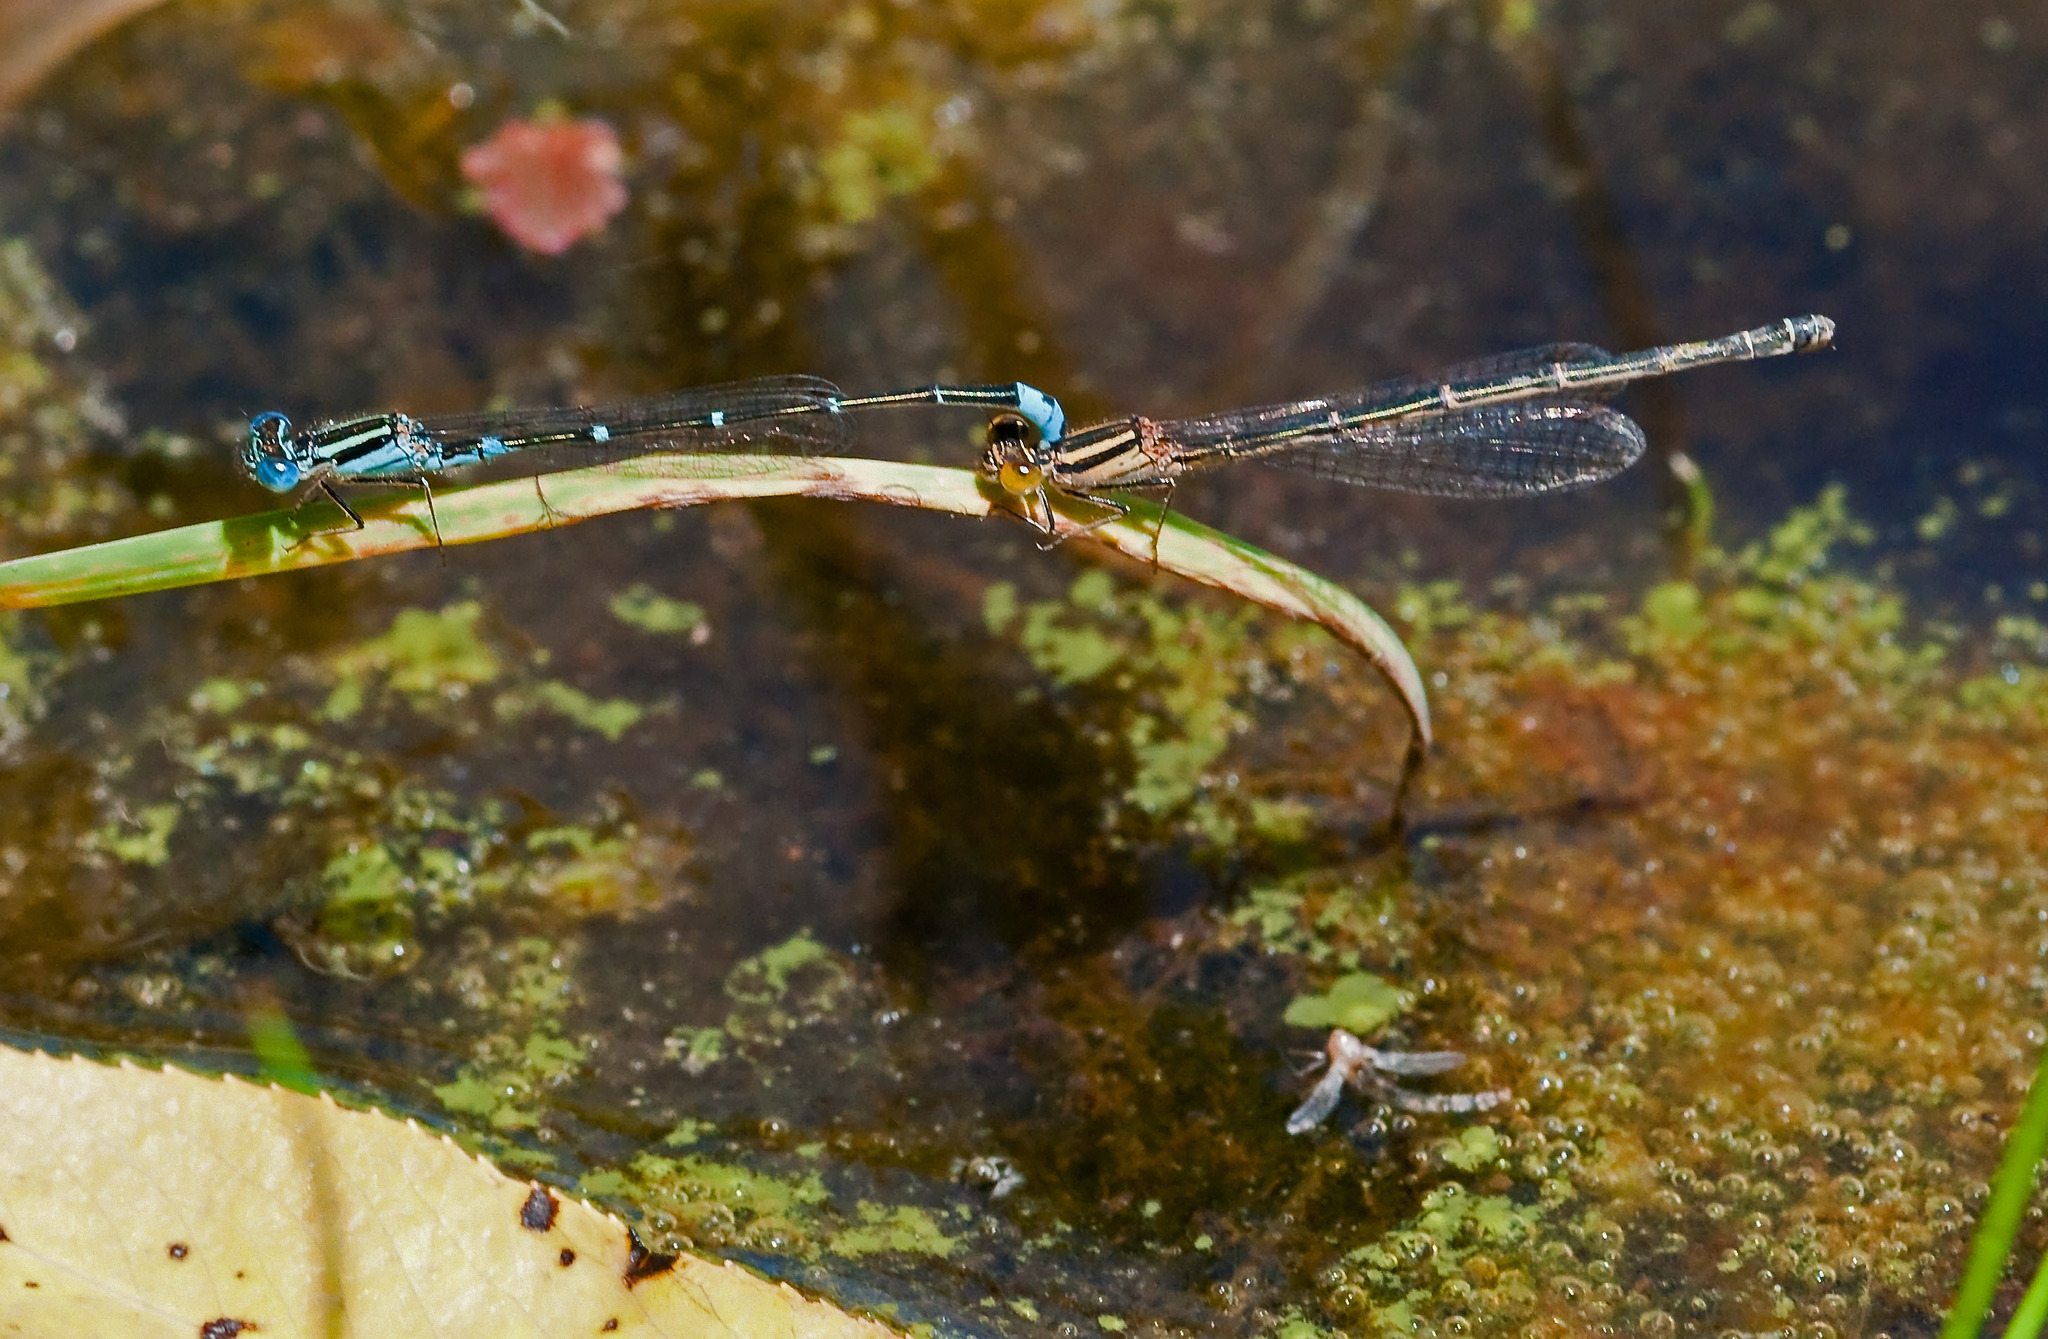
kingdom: Animalia
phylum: Arthropoda
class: Insecta
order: Odonata
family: Coenagrionidae
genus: Austroagrion
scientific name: Austroagrion watsoni
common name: Eastern billabongfly
